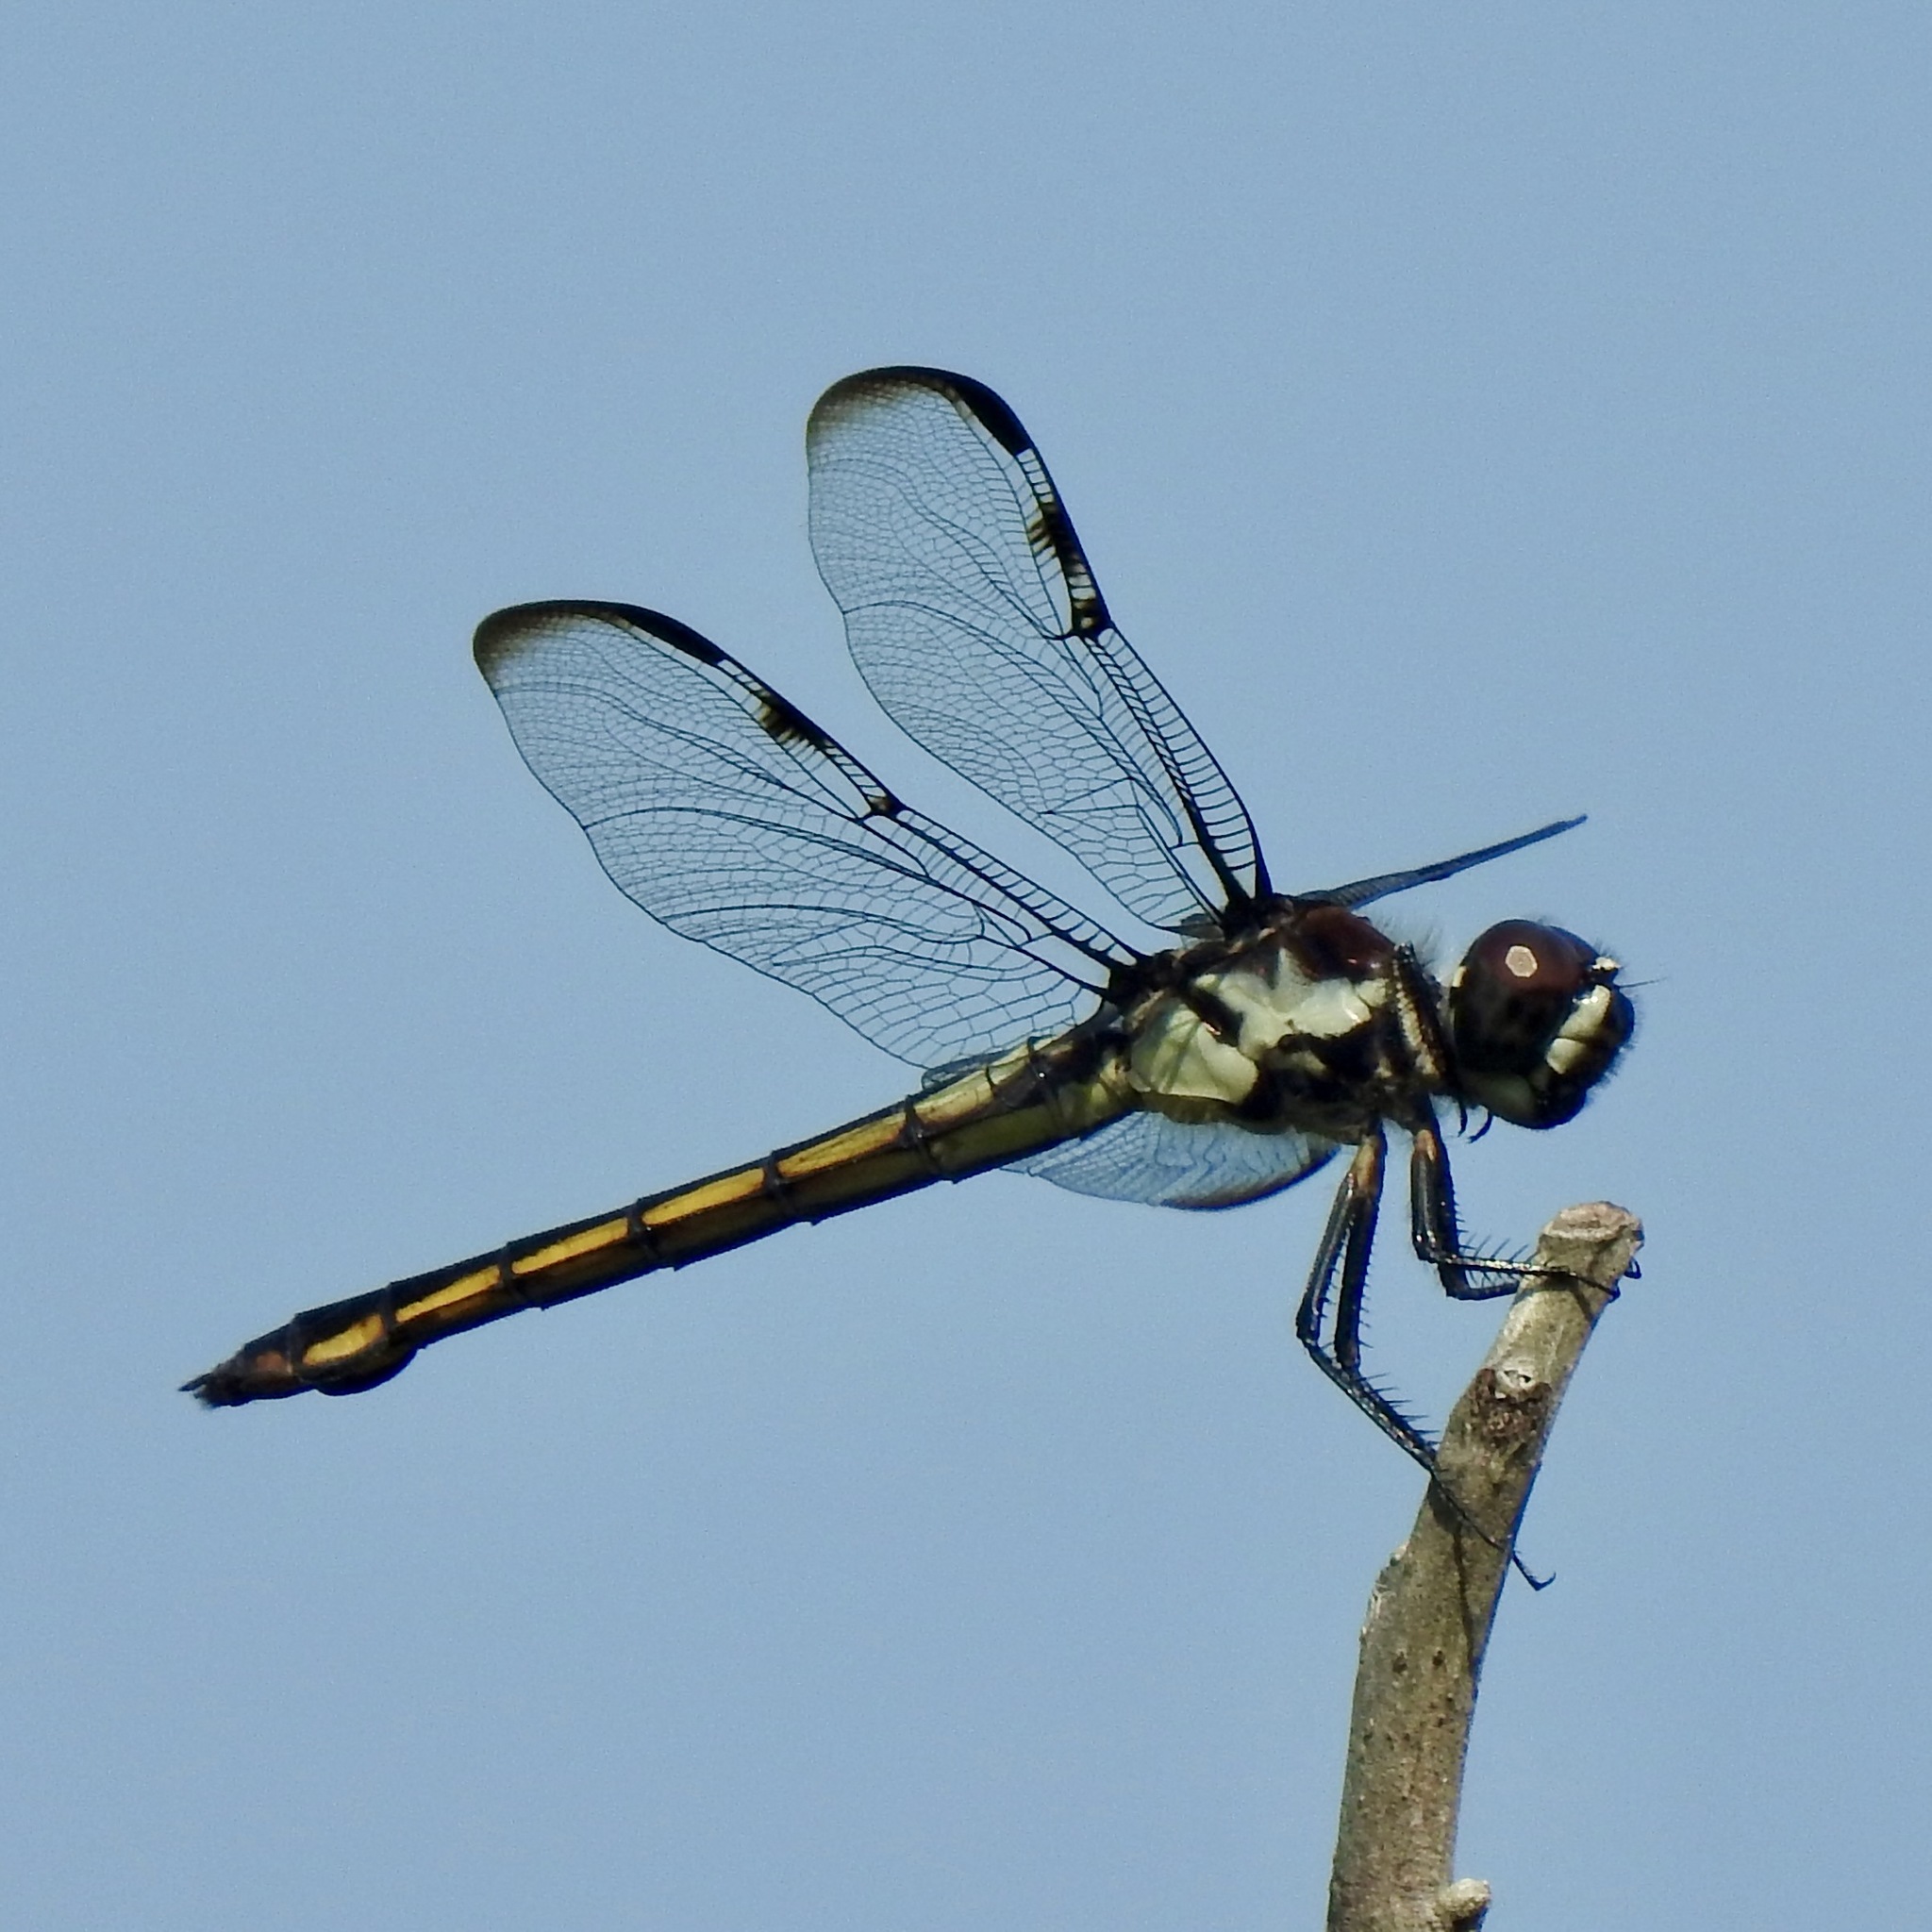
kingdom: Animalia
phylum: Arthropoda
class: Insecta
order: Odonata
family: Libellulidae
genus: Libellula
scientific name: Libellula axilena
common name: Bar-winged skimmer
